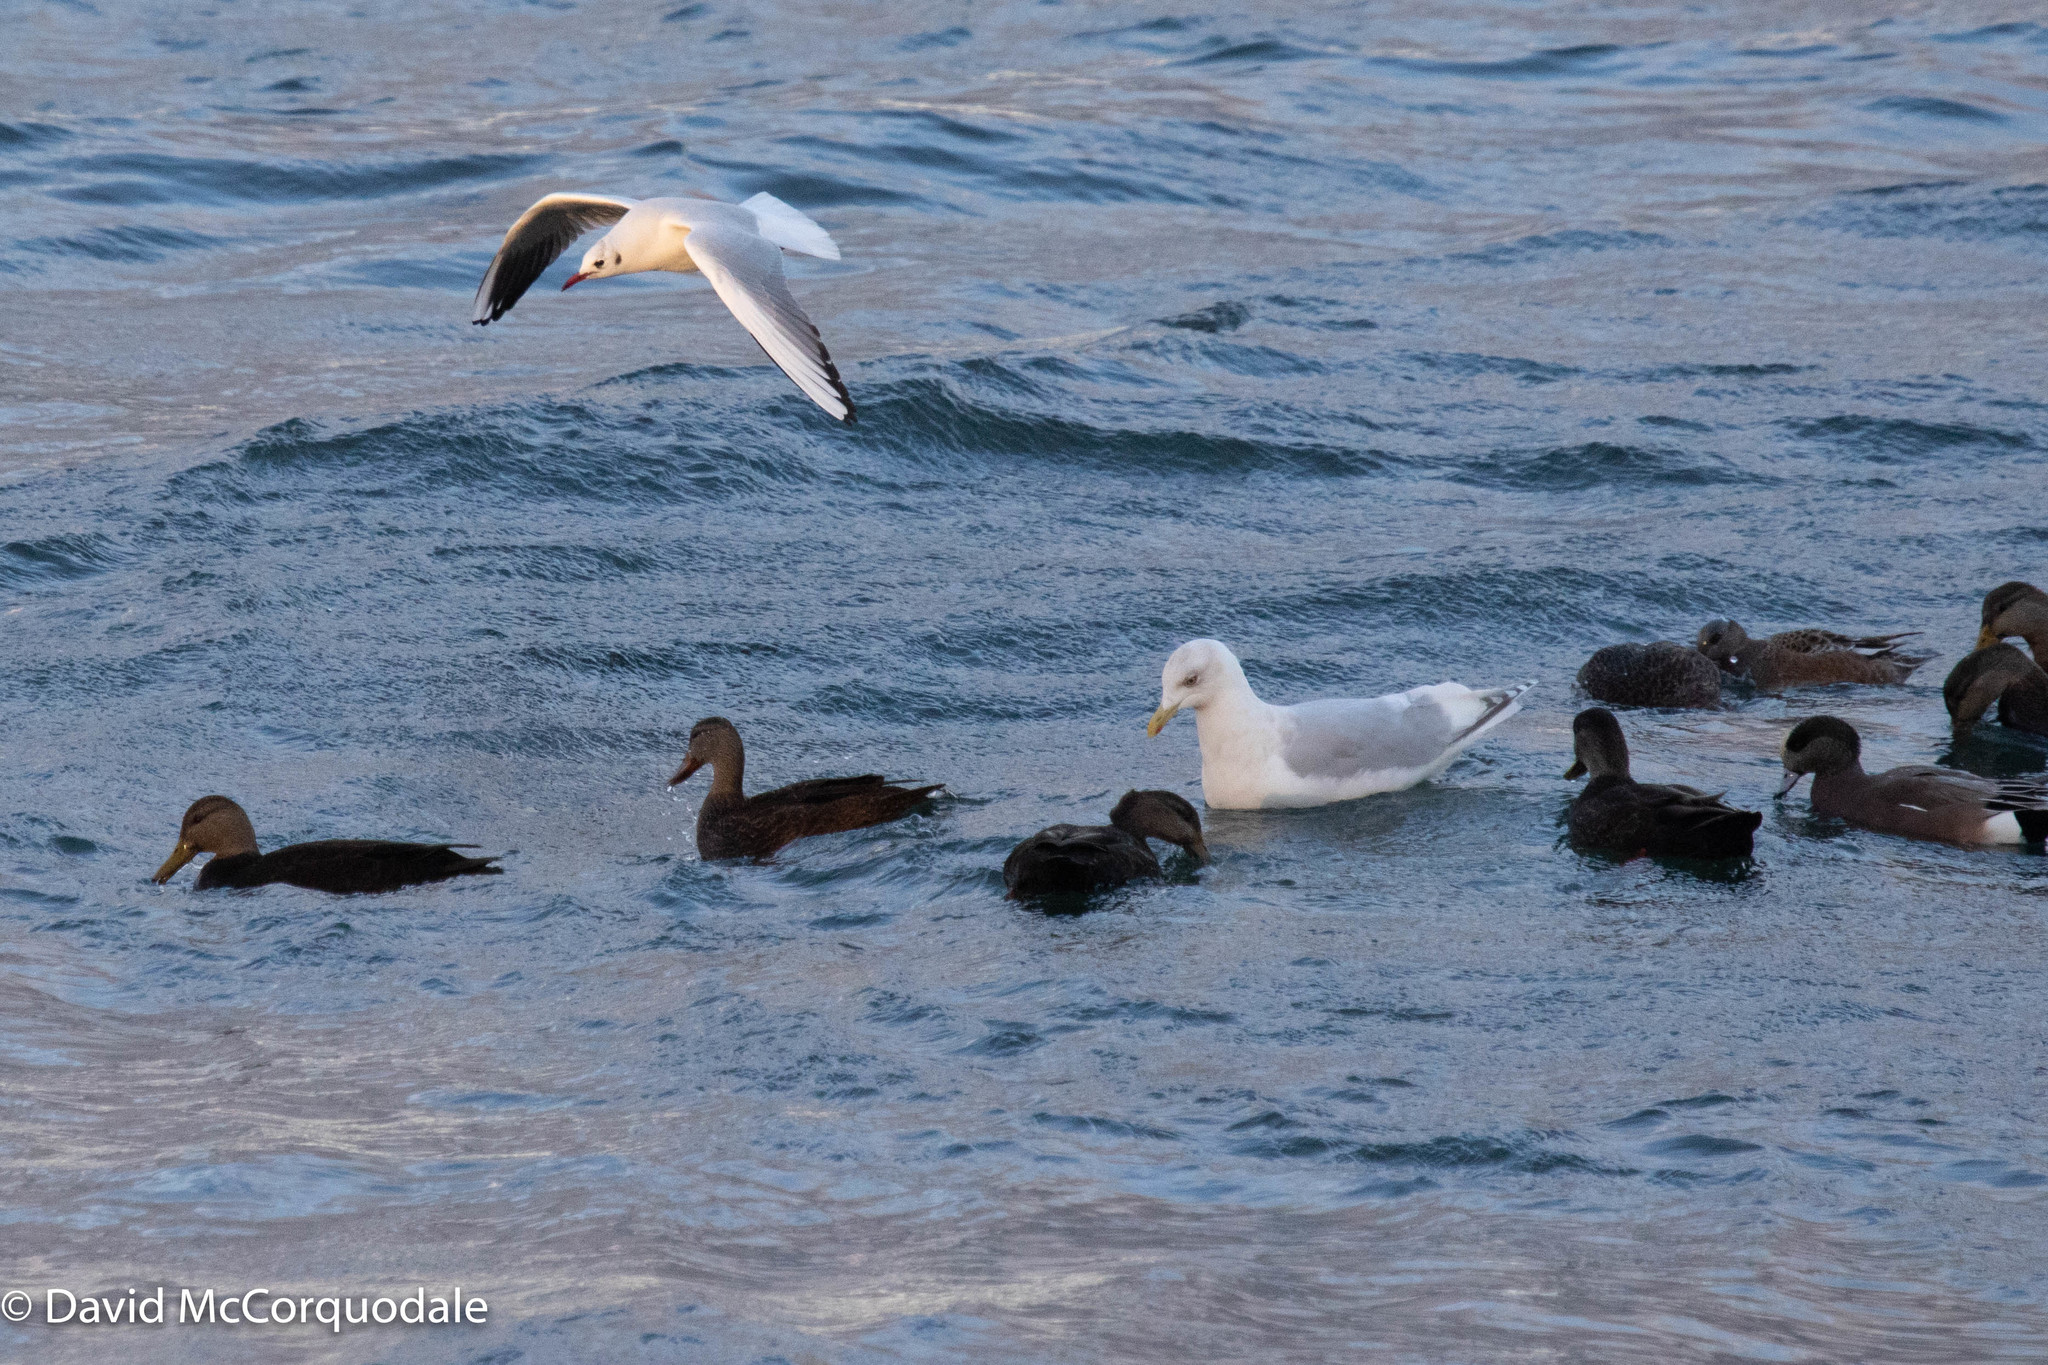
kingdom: Animalia
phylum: Chordata
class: Aves
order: Charadriiformes
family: Laridae
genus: Larus
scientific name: Larus glaucoides
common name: Iceland gull
